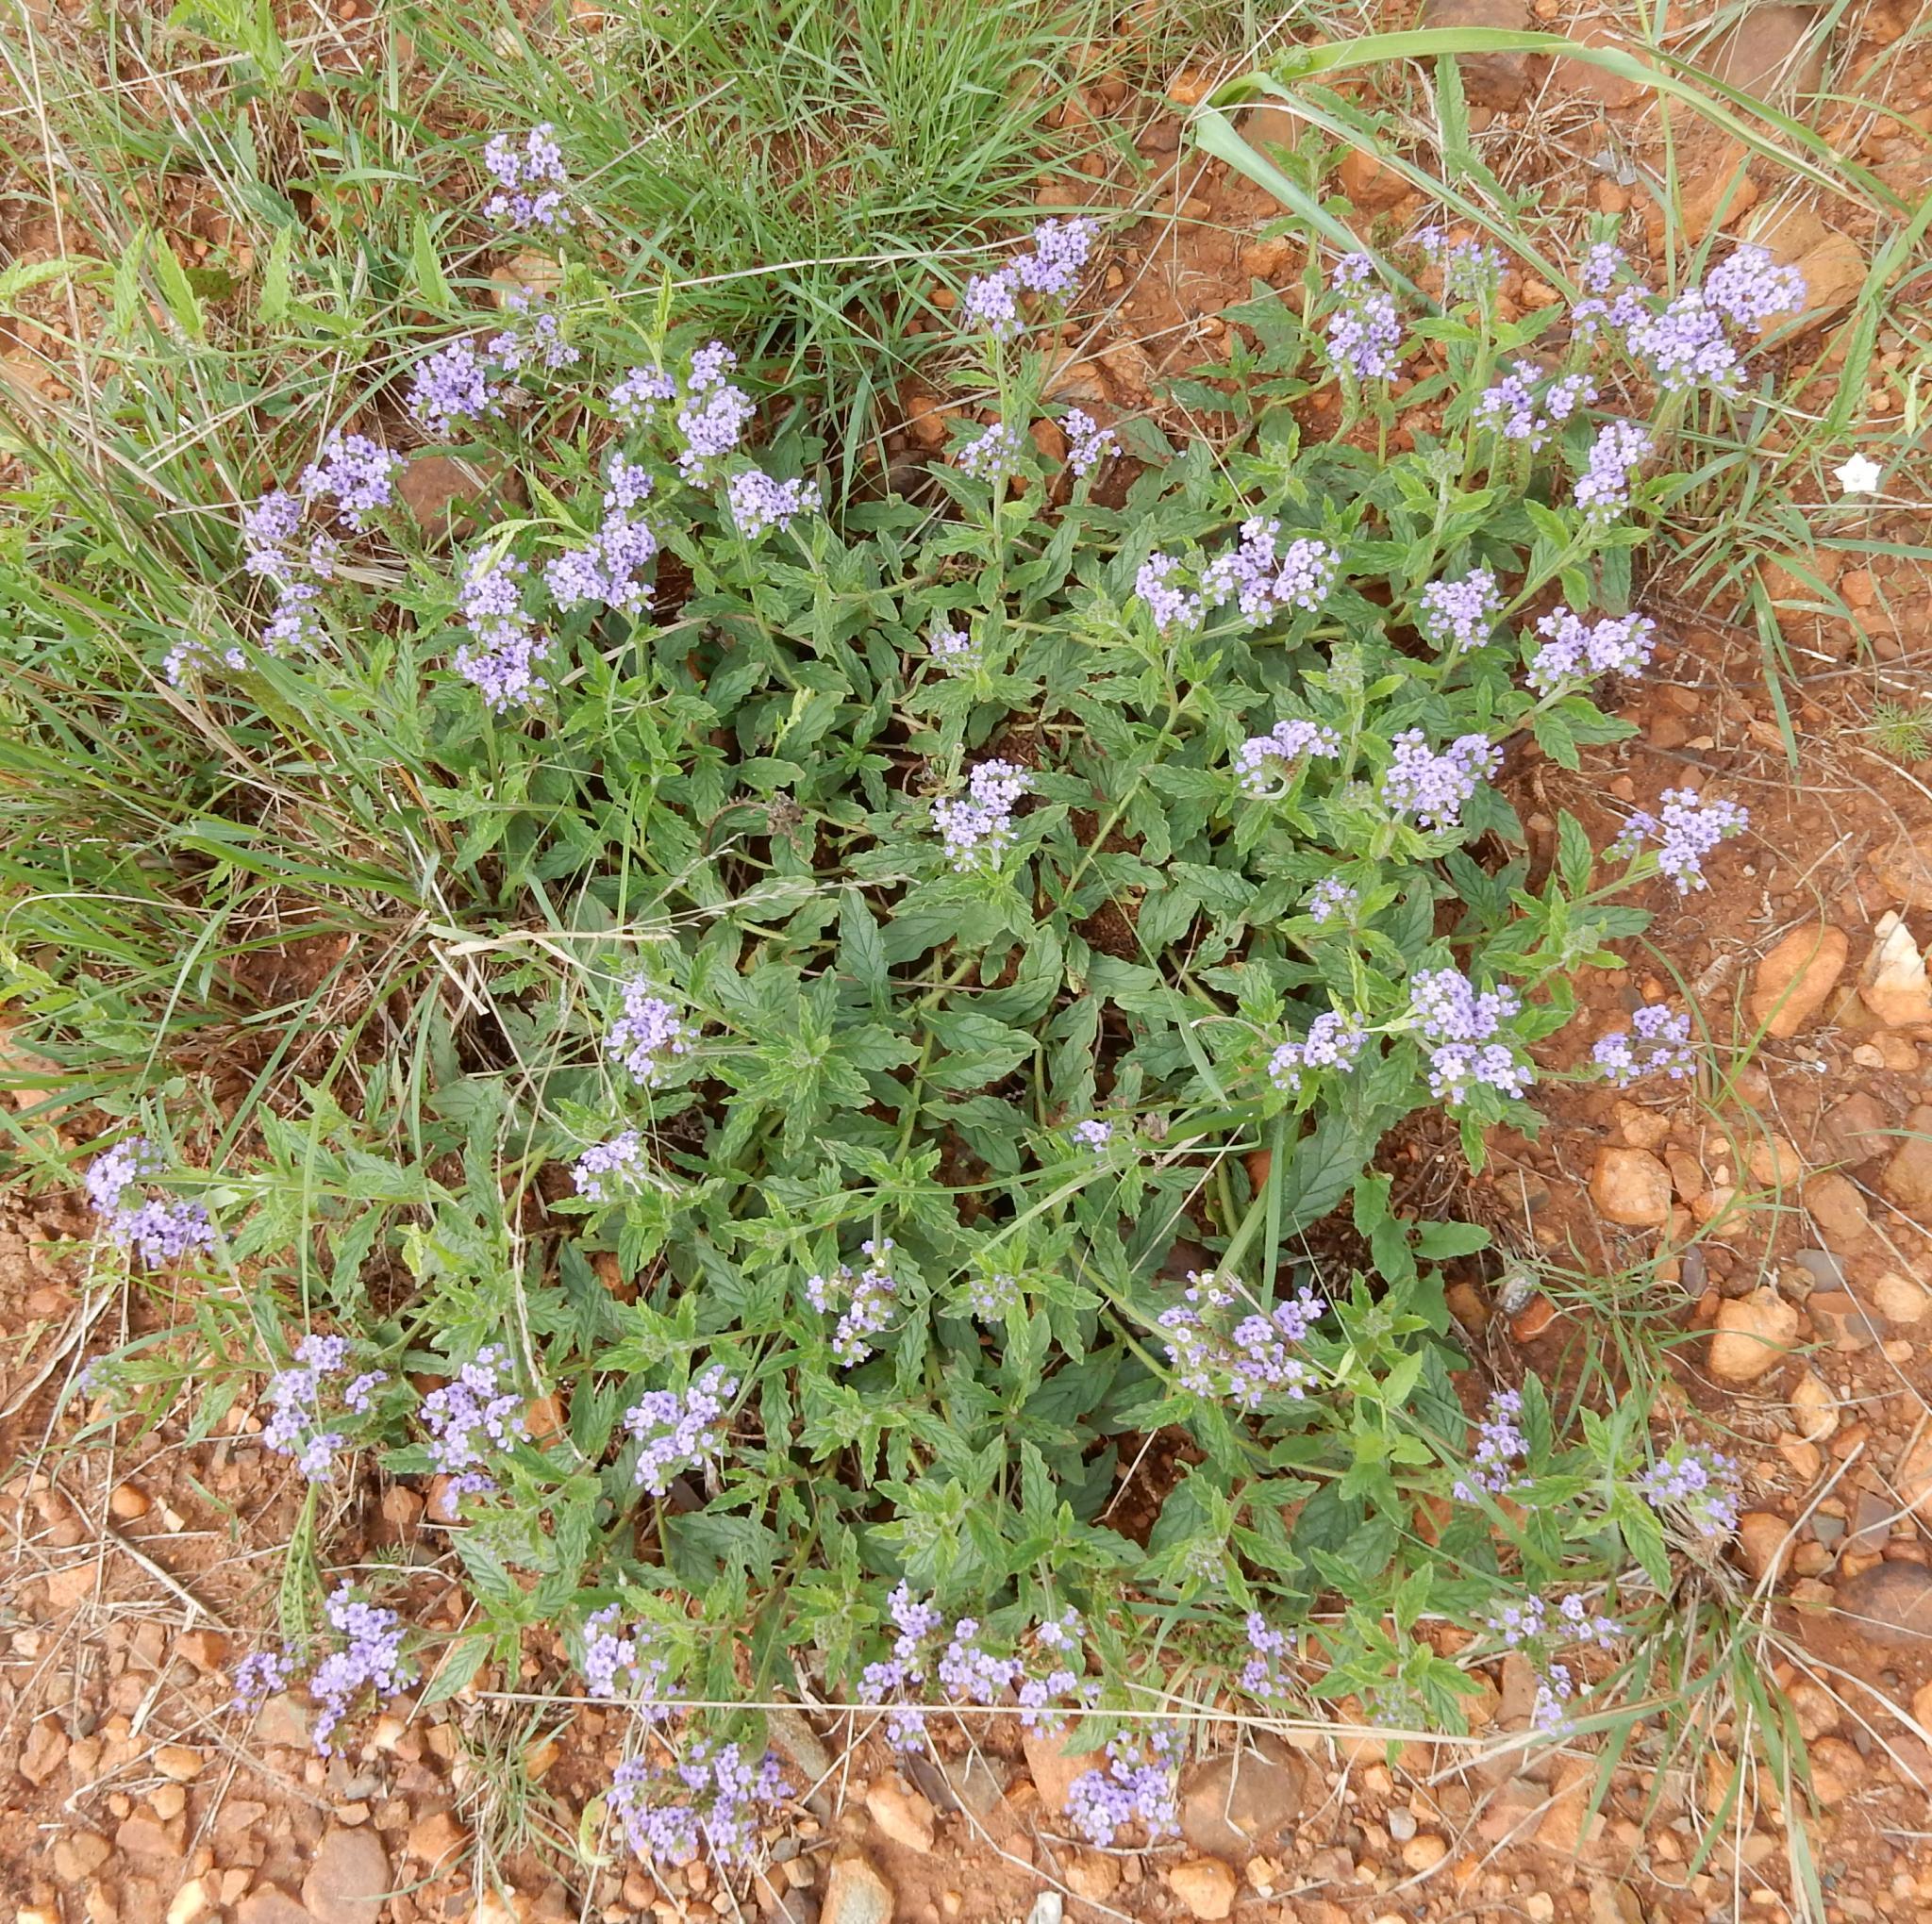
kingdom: Plantae
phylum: Tracheophyta
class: Magnoliopsida
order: Boraginales
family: Heliotropiaceae
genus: Heliotropium
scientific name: Heliotropium amplexicaule
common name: Clasping heliotrope
